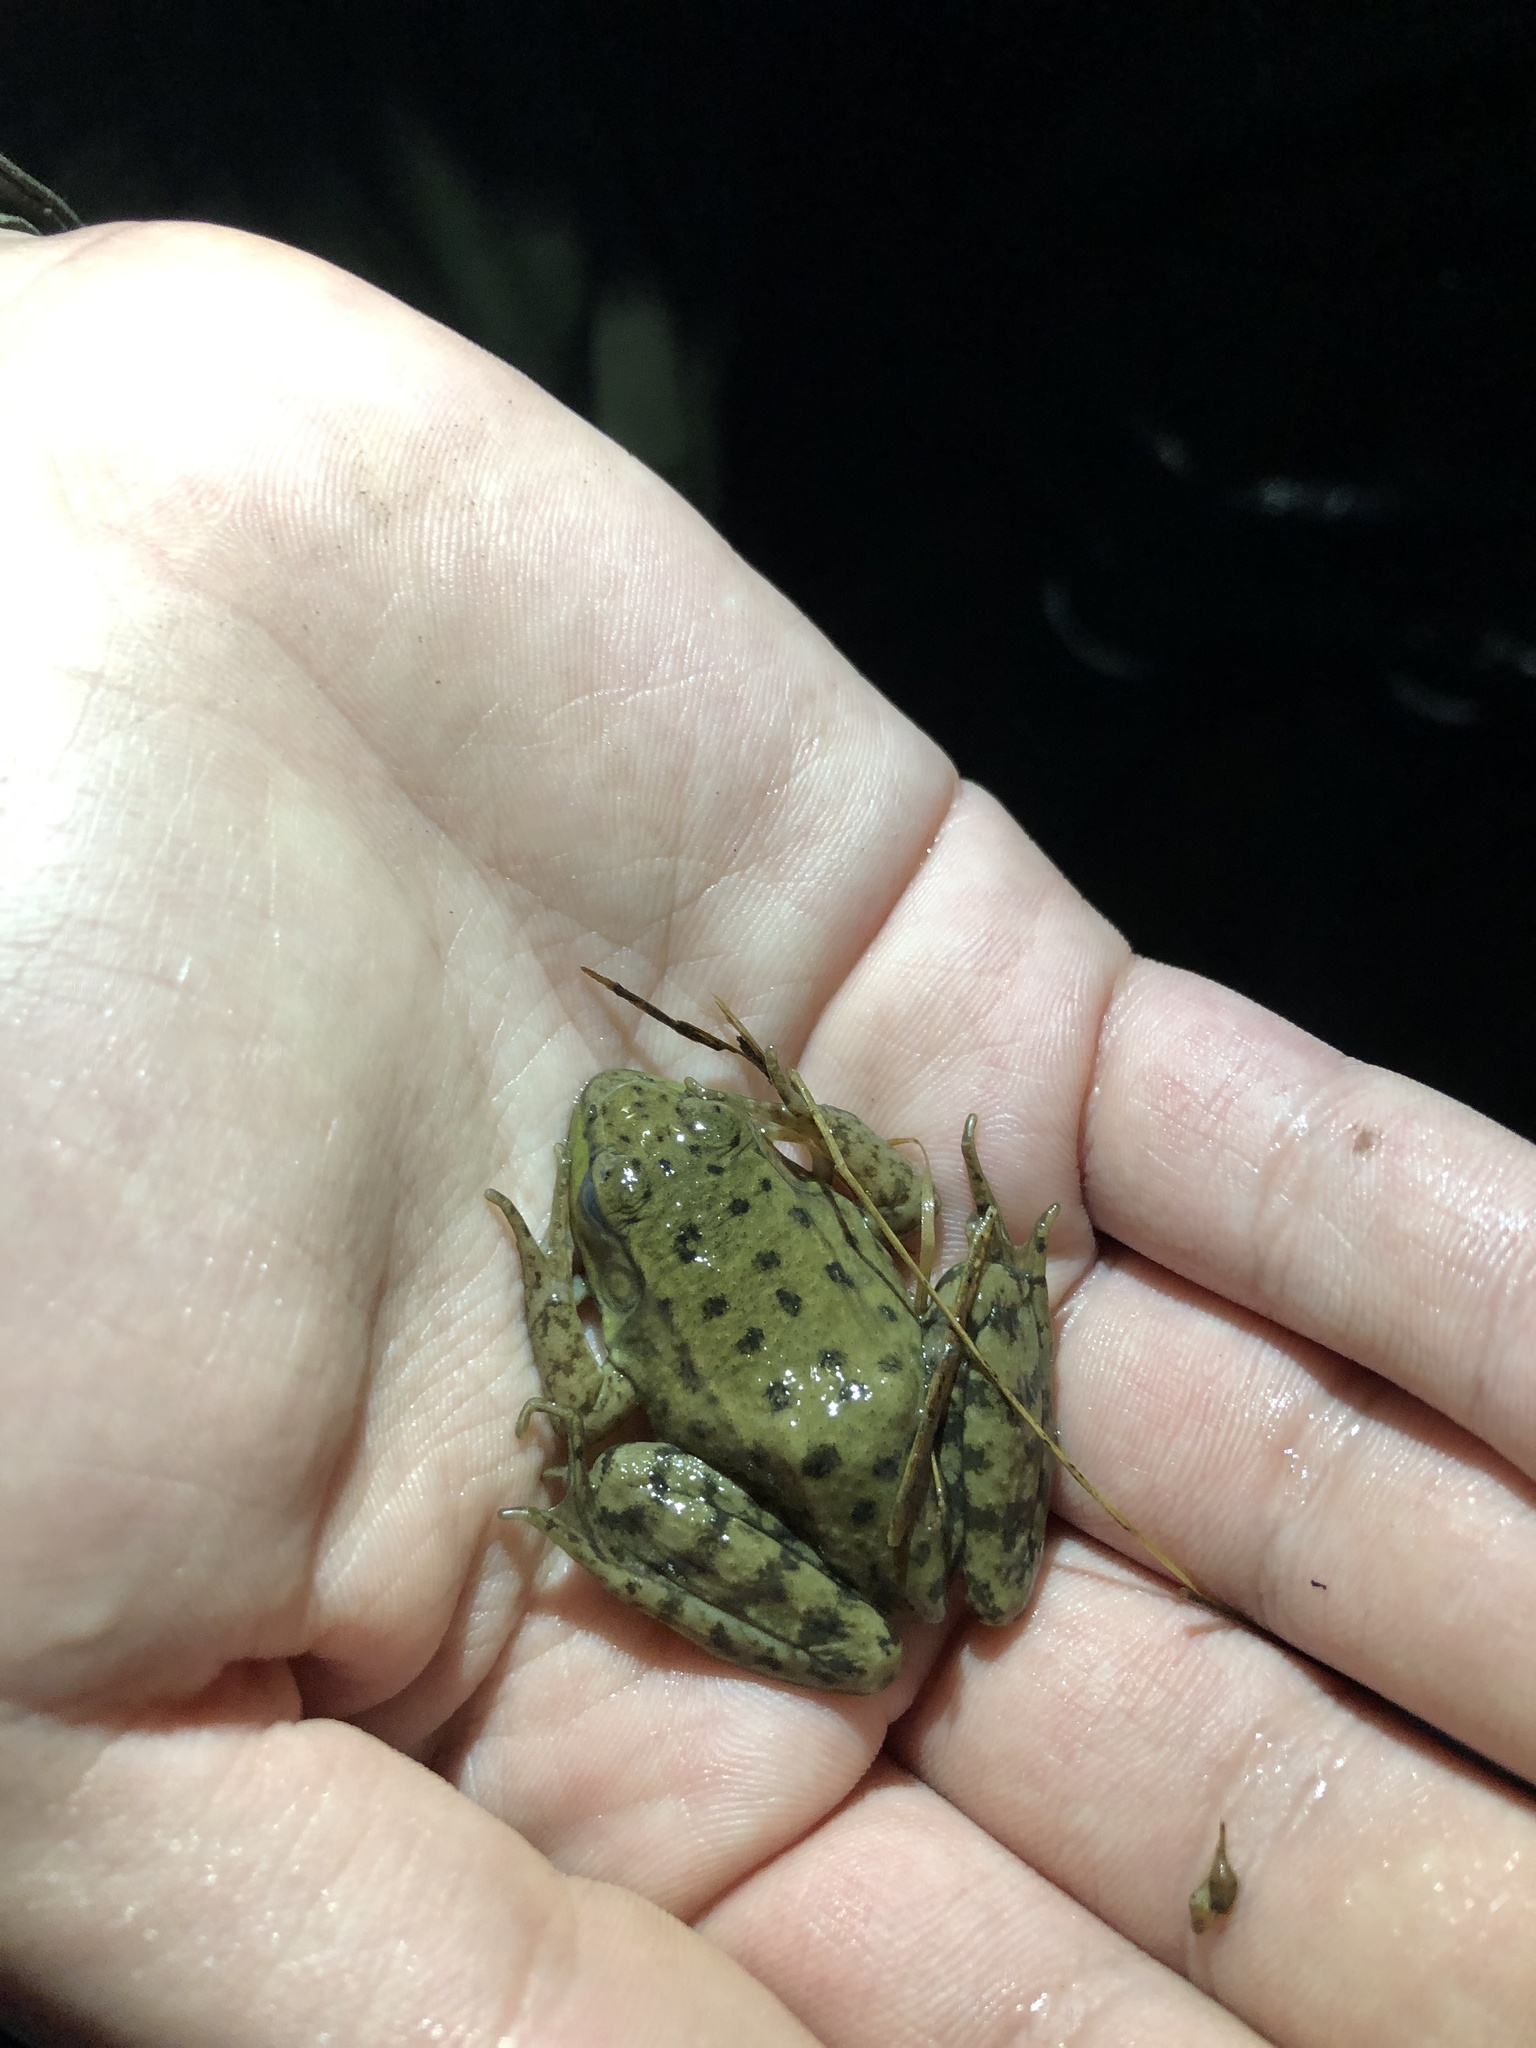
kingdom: Animalia
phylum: Chordata
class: Amphibia
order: Anura
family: Ranidae
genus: Lithobates
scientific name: Lithobates clamitans
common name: Green frog
